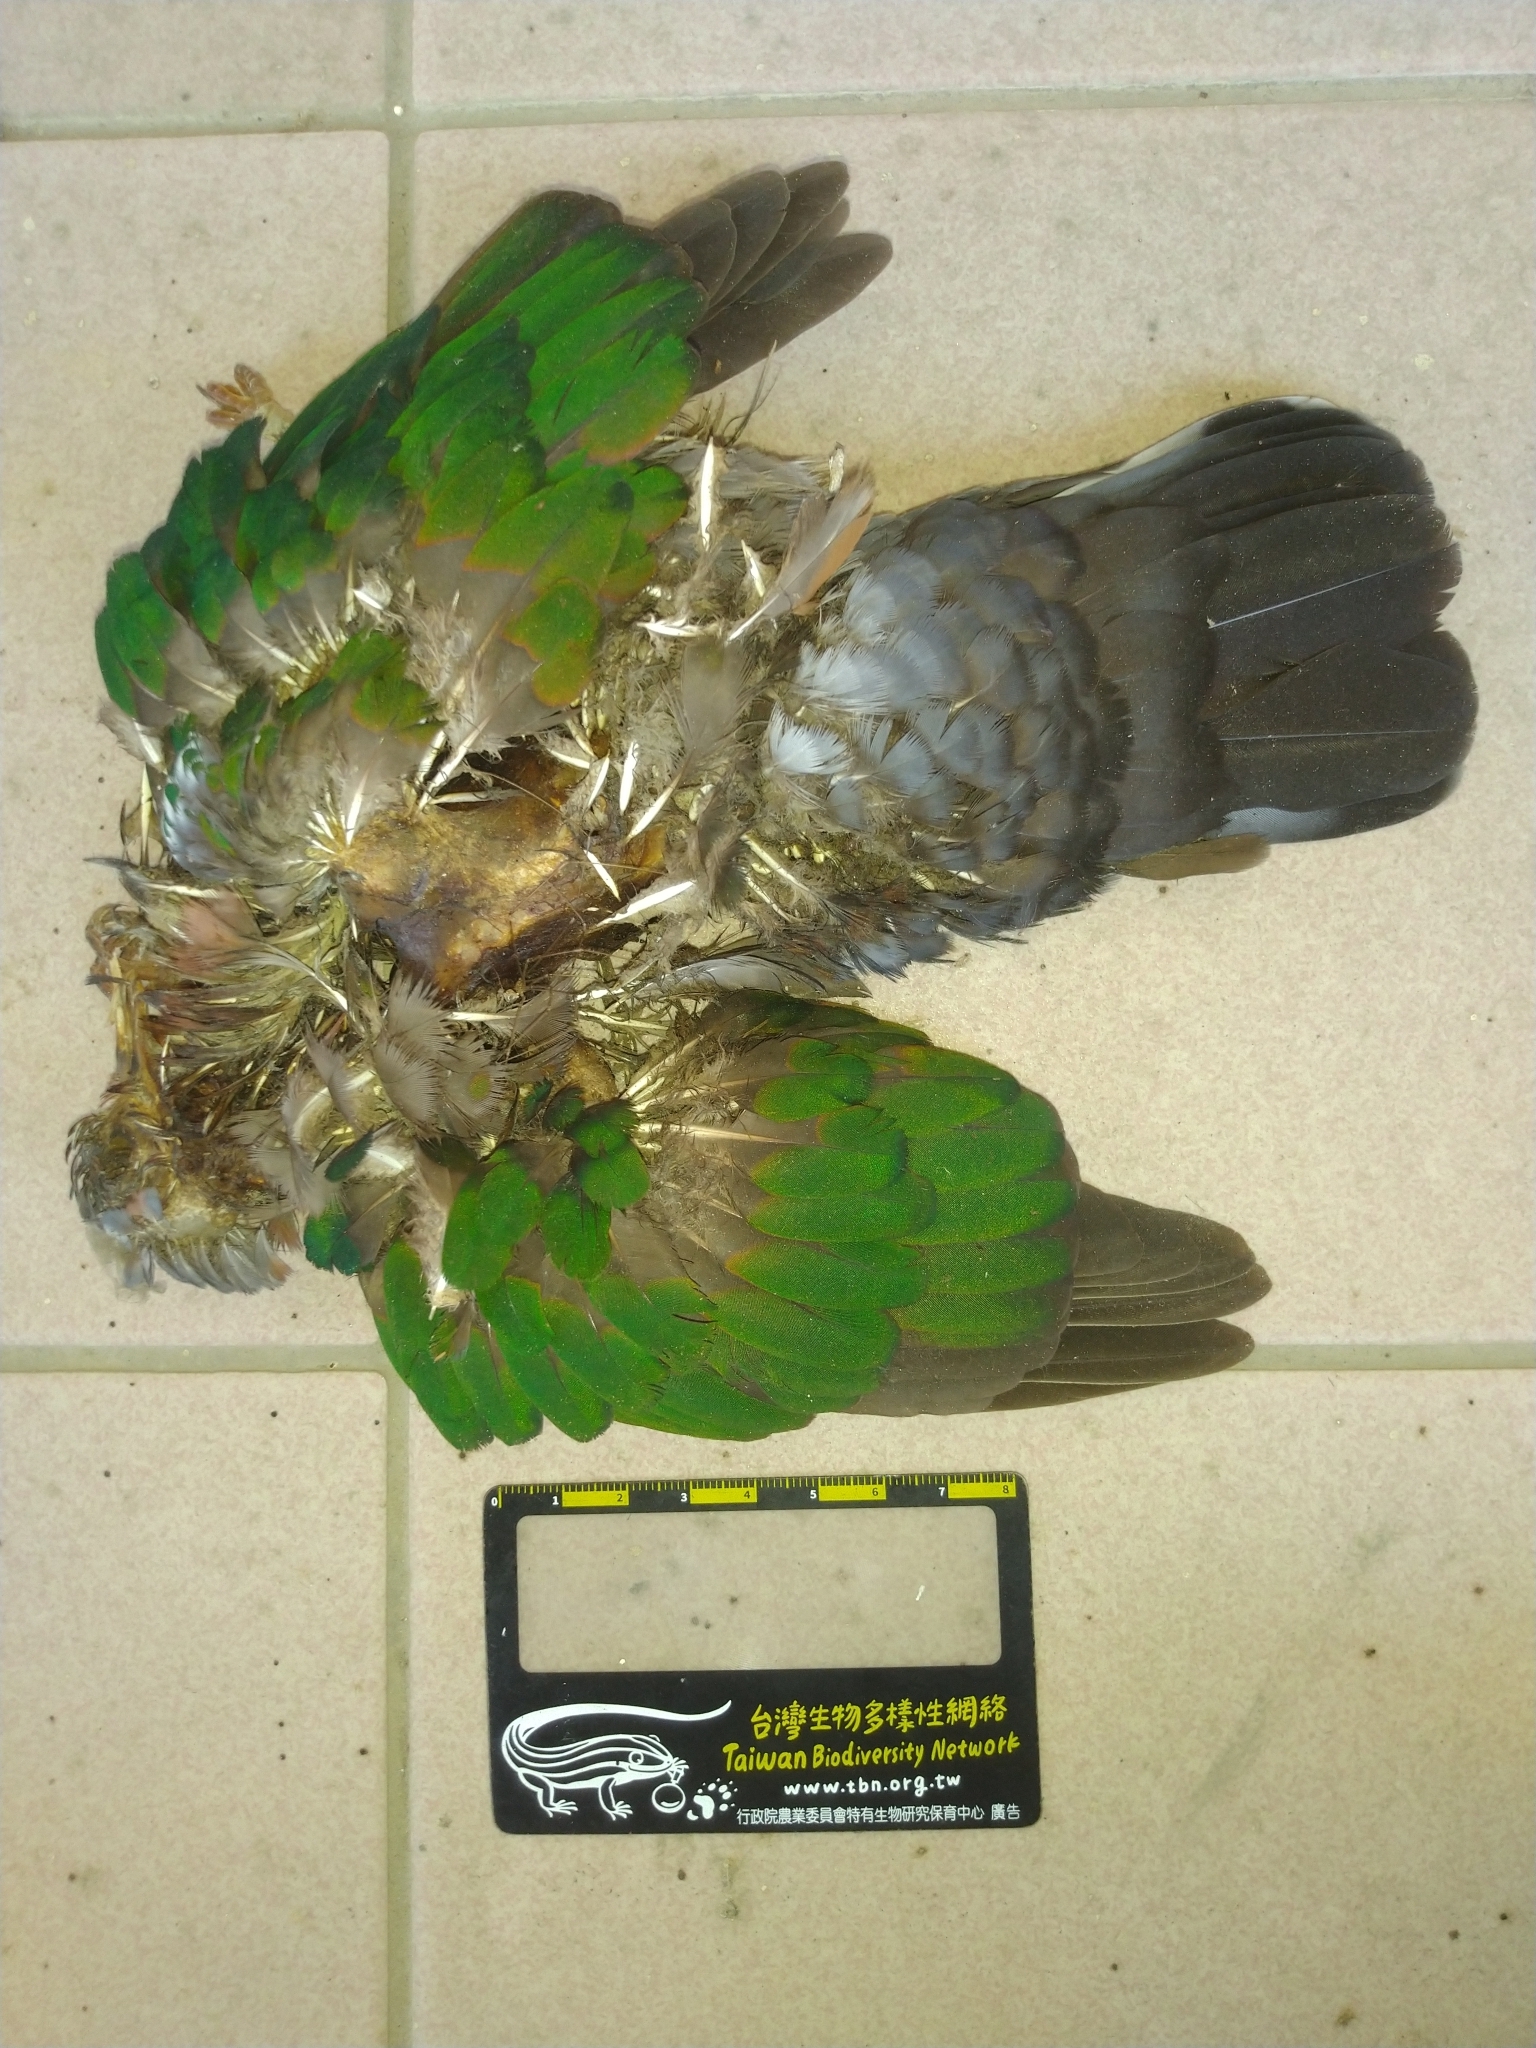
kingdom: Animalia
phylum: Chordata
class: Aves
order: Columbiformes
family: Columbidae
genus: Chalcophaps
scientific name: Chalcophaps indica
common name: Common emerald dove
